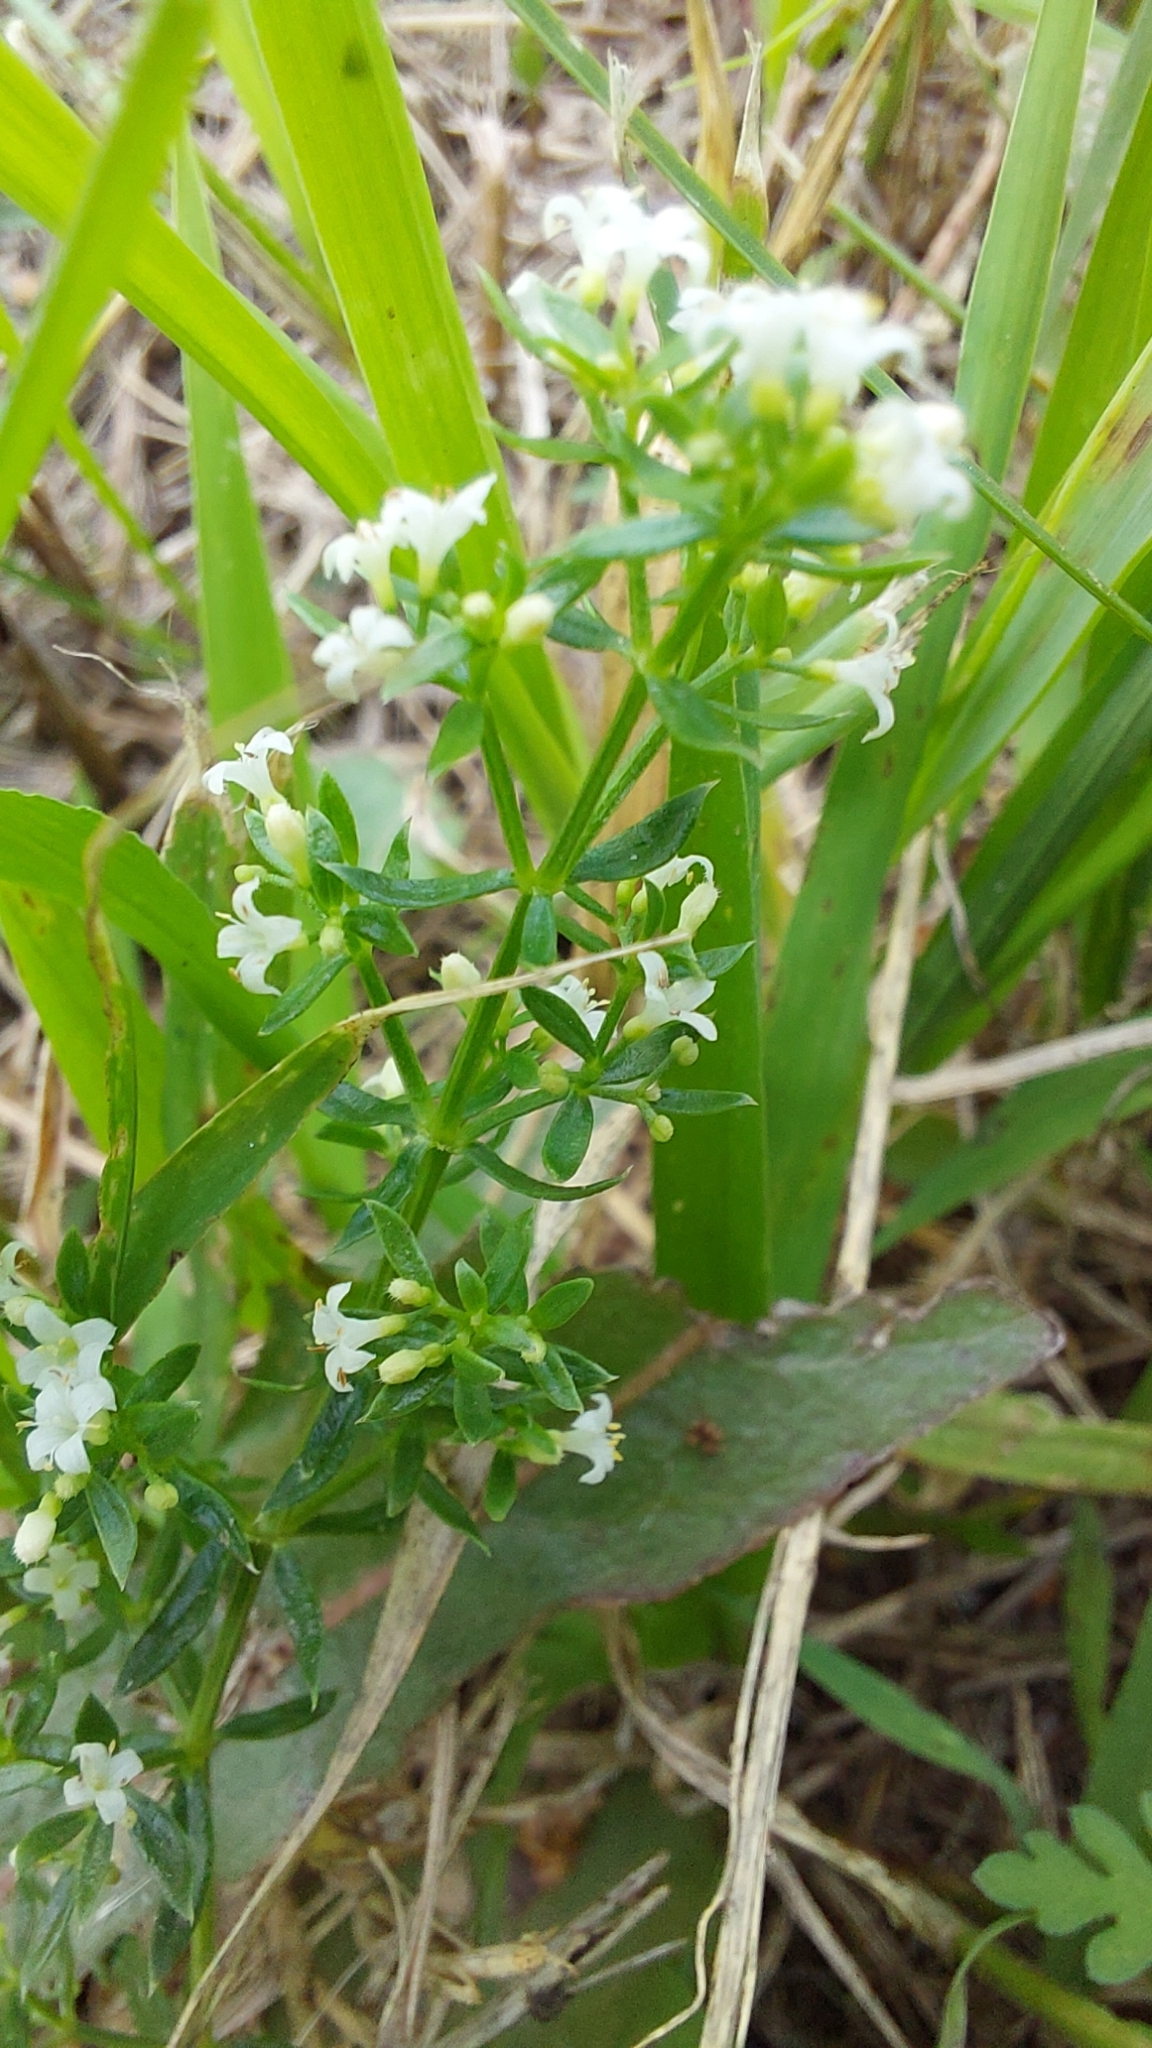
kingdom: Plantae
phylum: Tracheophyta
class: Magnoliopsida
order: Gentianales
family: Rubiaceae
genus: Galium
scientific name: Galium humifusum
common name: Spreading bedstraw
